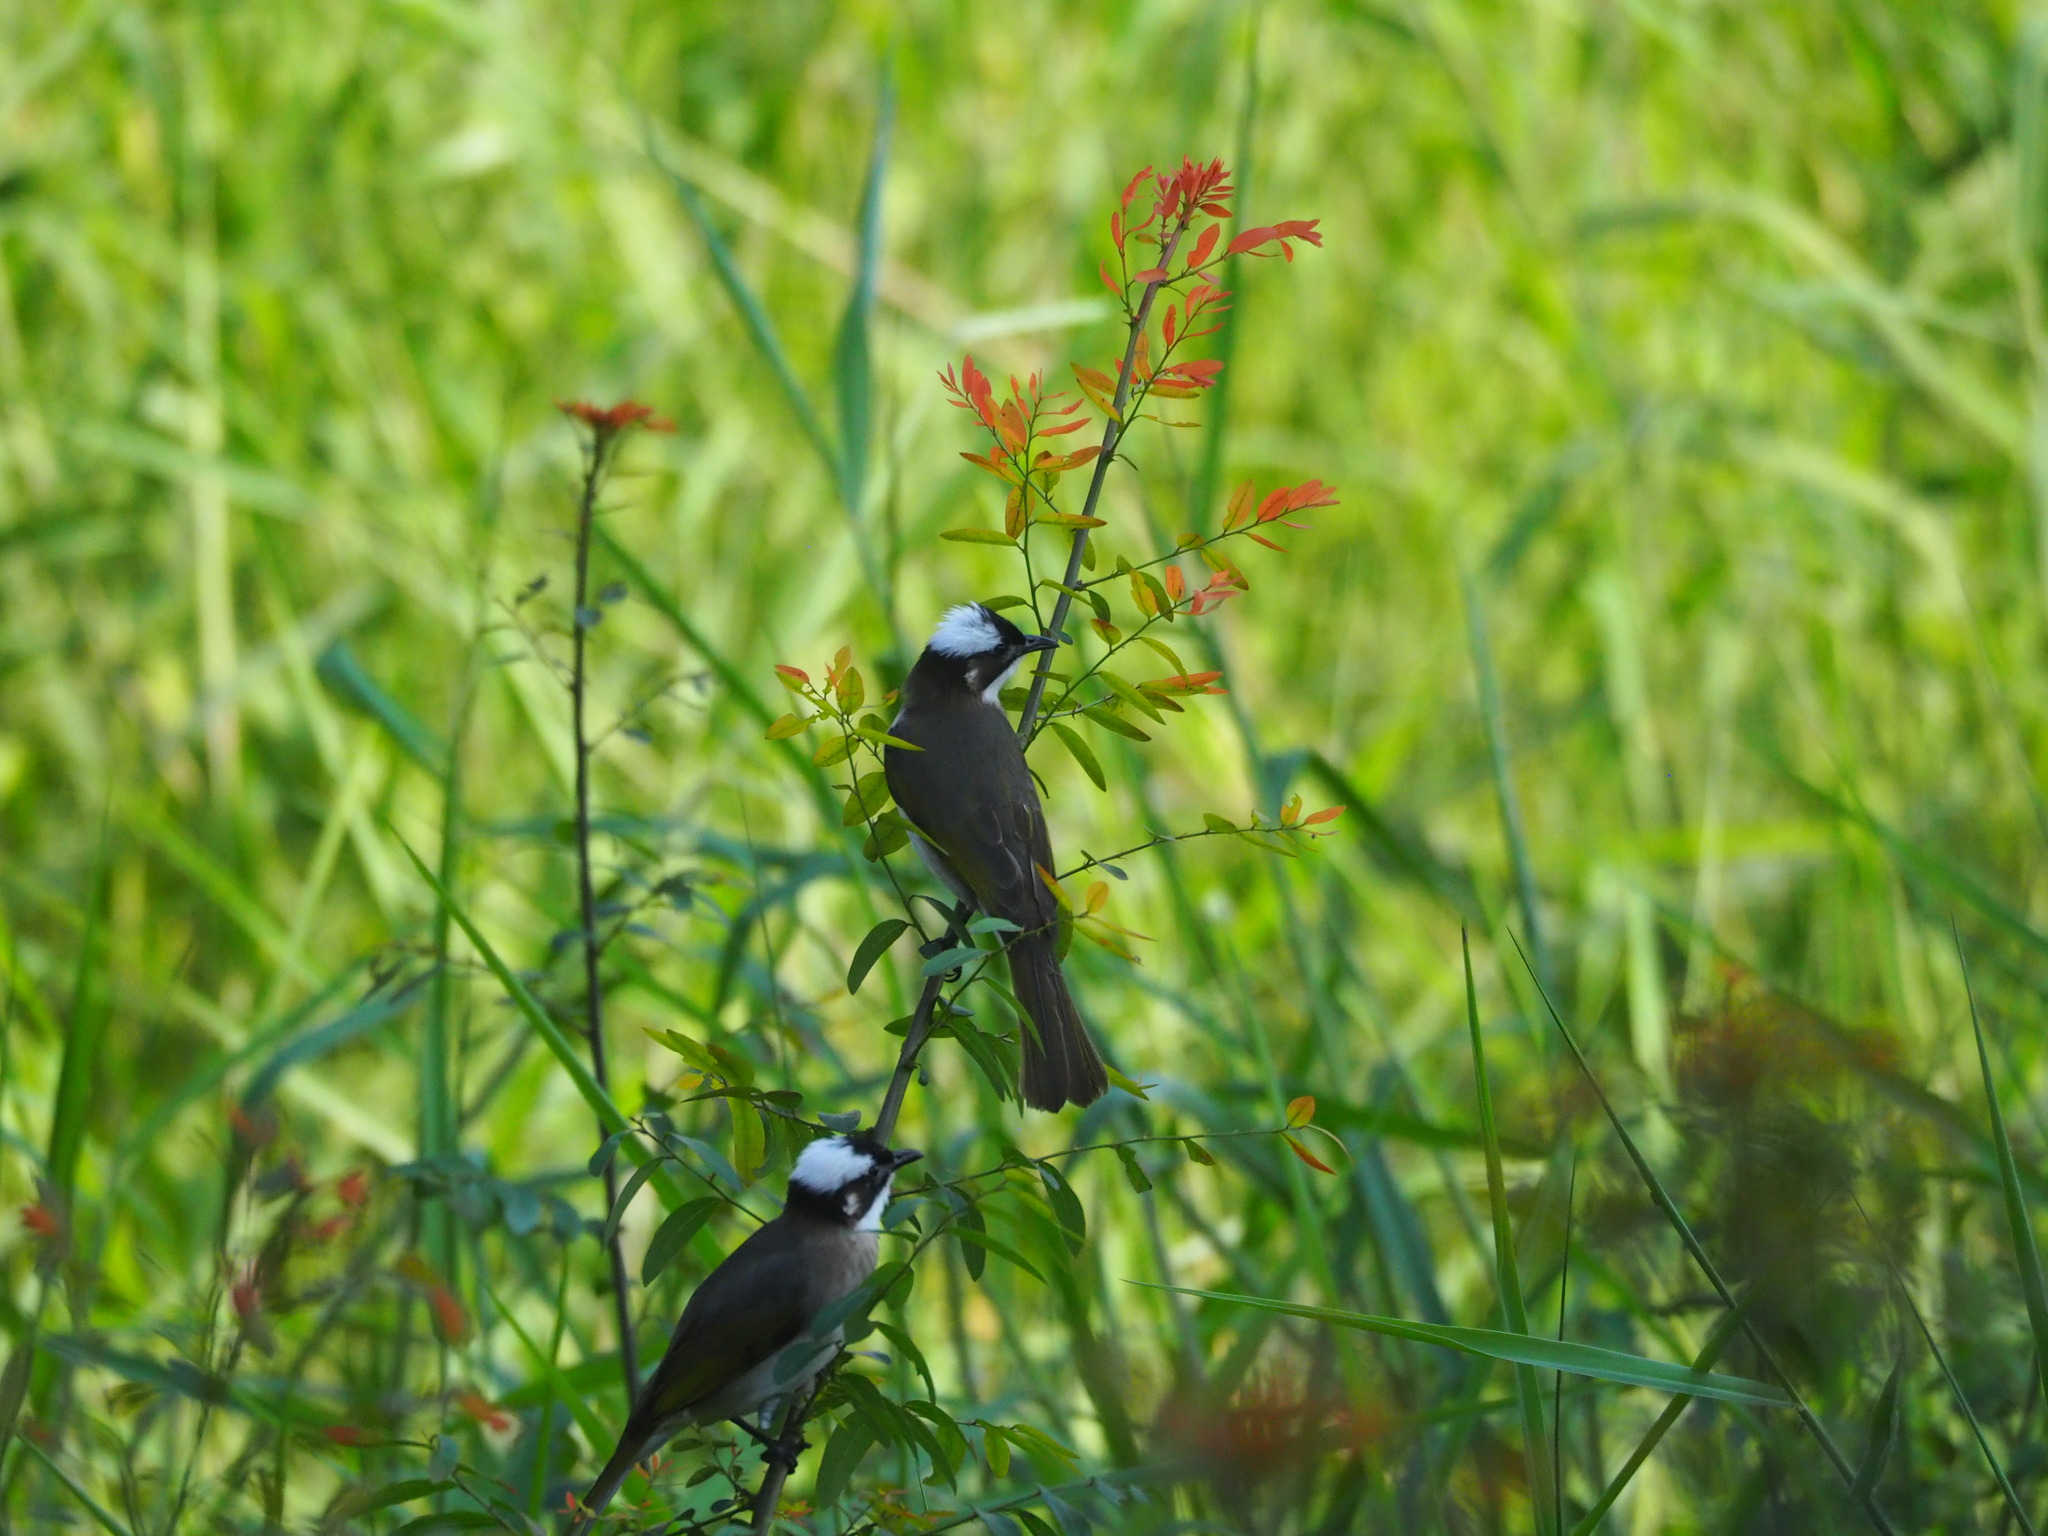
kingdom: Animalia
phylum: Chordata
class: Aves
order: Passeriformes
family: Pycnonotidae
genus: Pycnonotus
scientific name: Pycnonotus sinensis
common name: Light-vented bulbul
